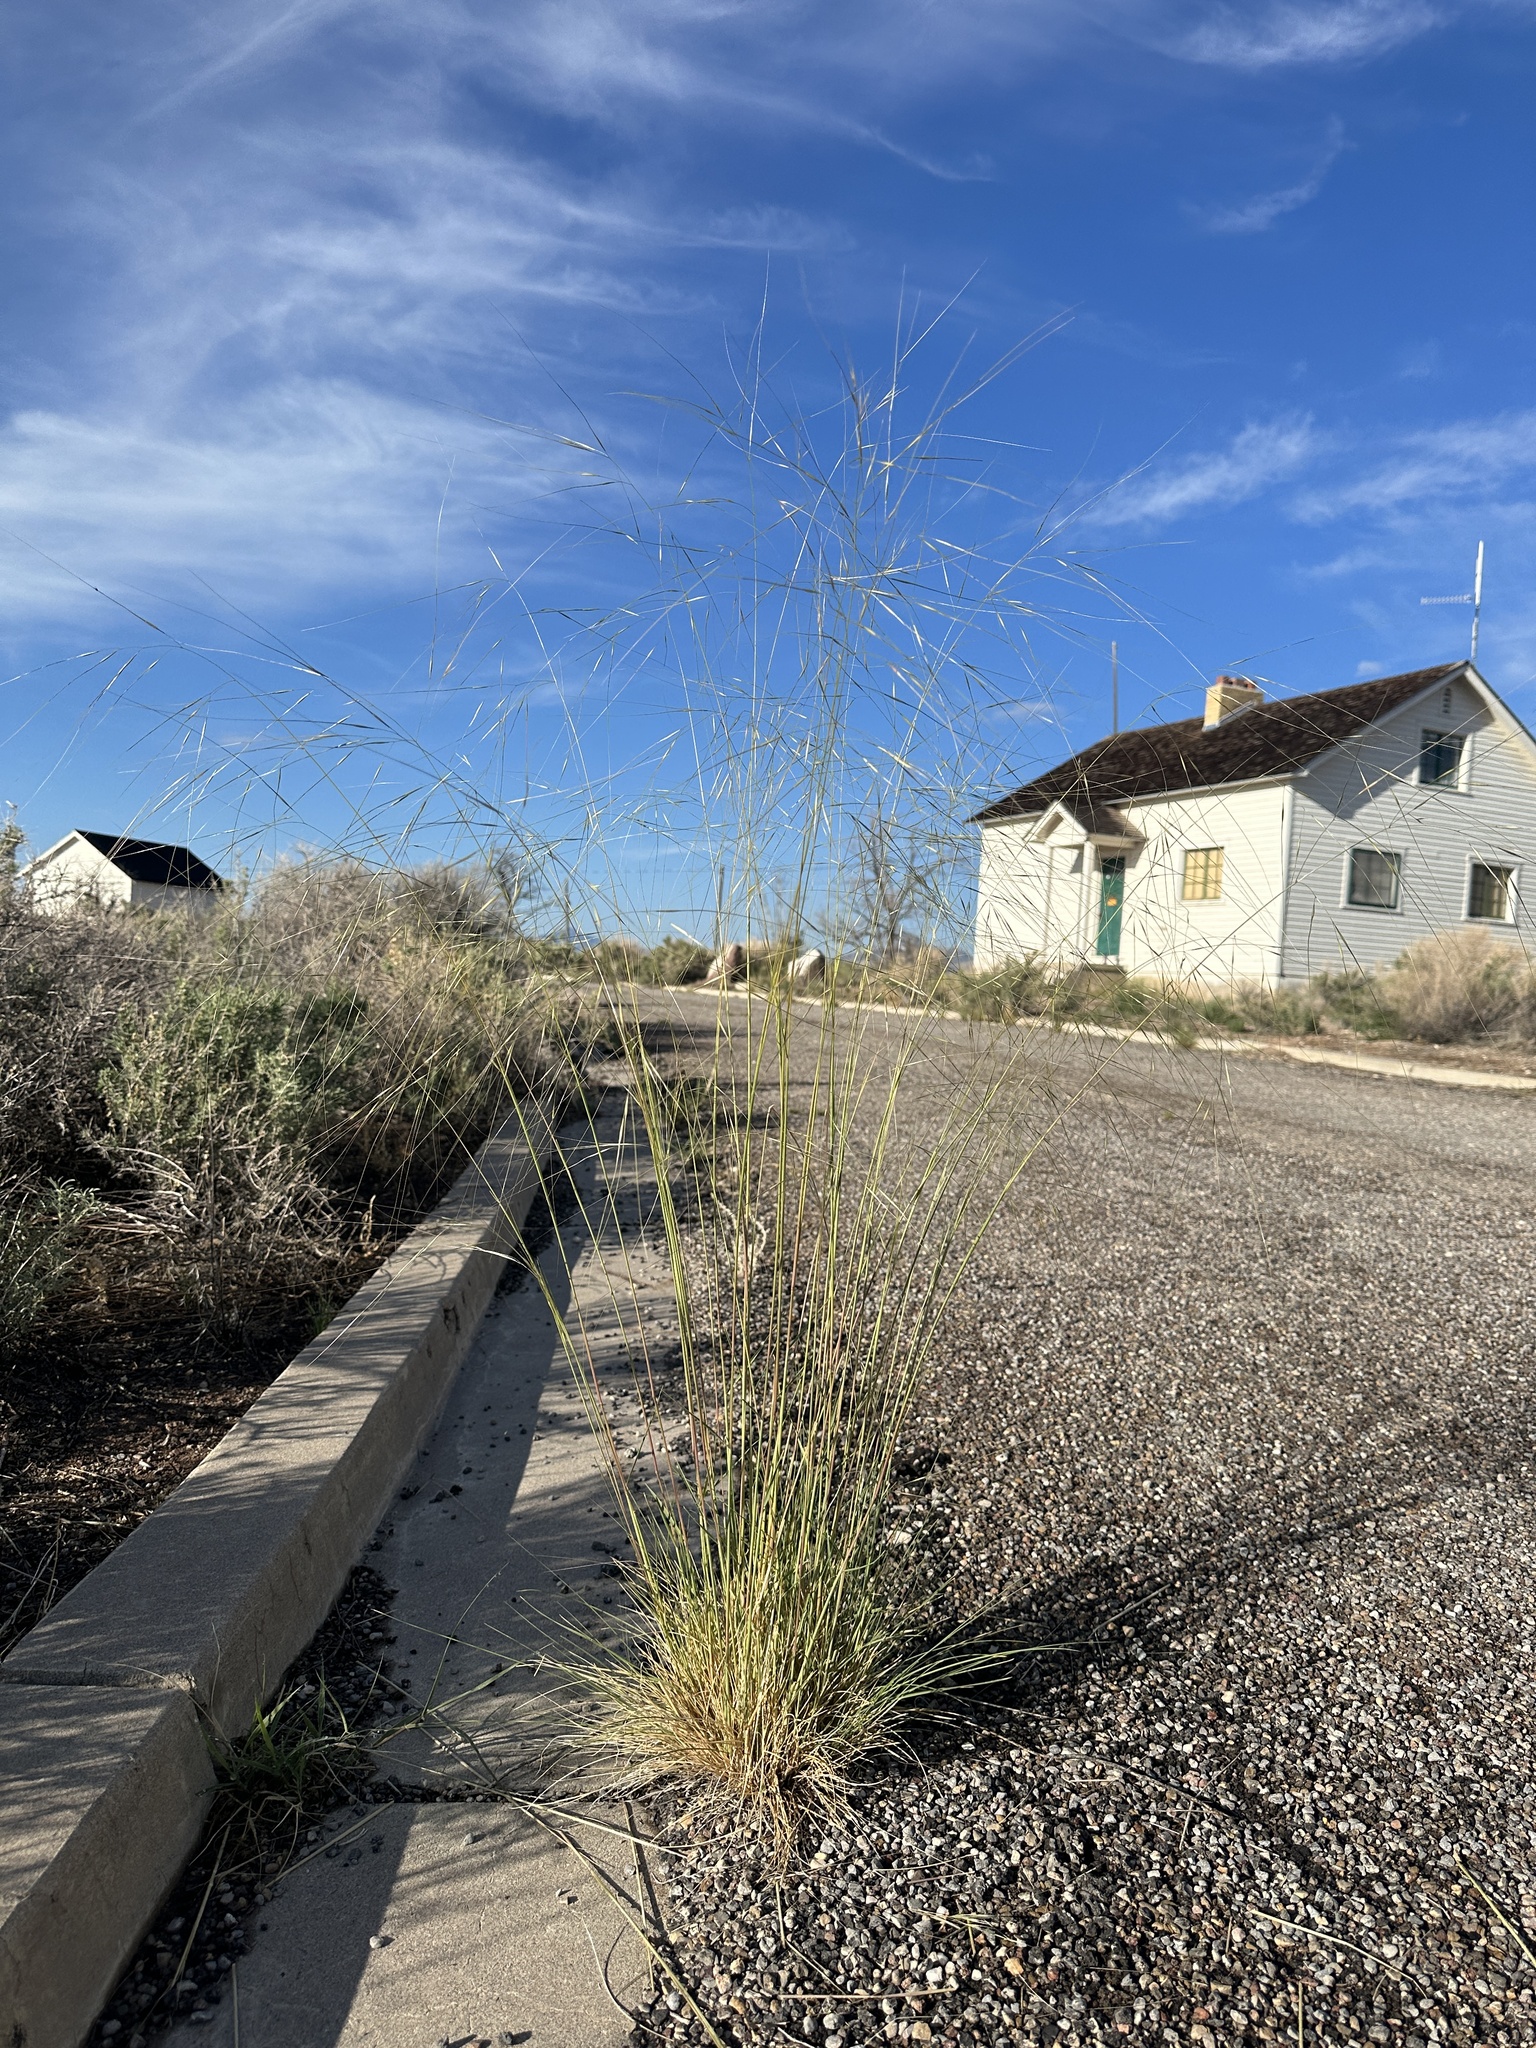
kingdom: Plantae
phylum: Tracheophyta
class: Liliopsida
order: Poales
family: Poaceae
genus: Hesperostipa
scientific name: Hesperostipa comata
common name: Needle-and-thread grass
